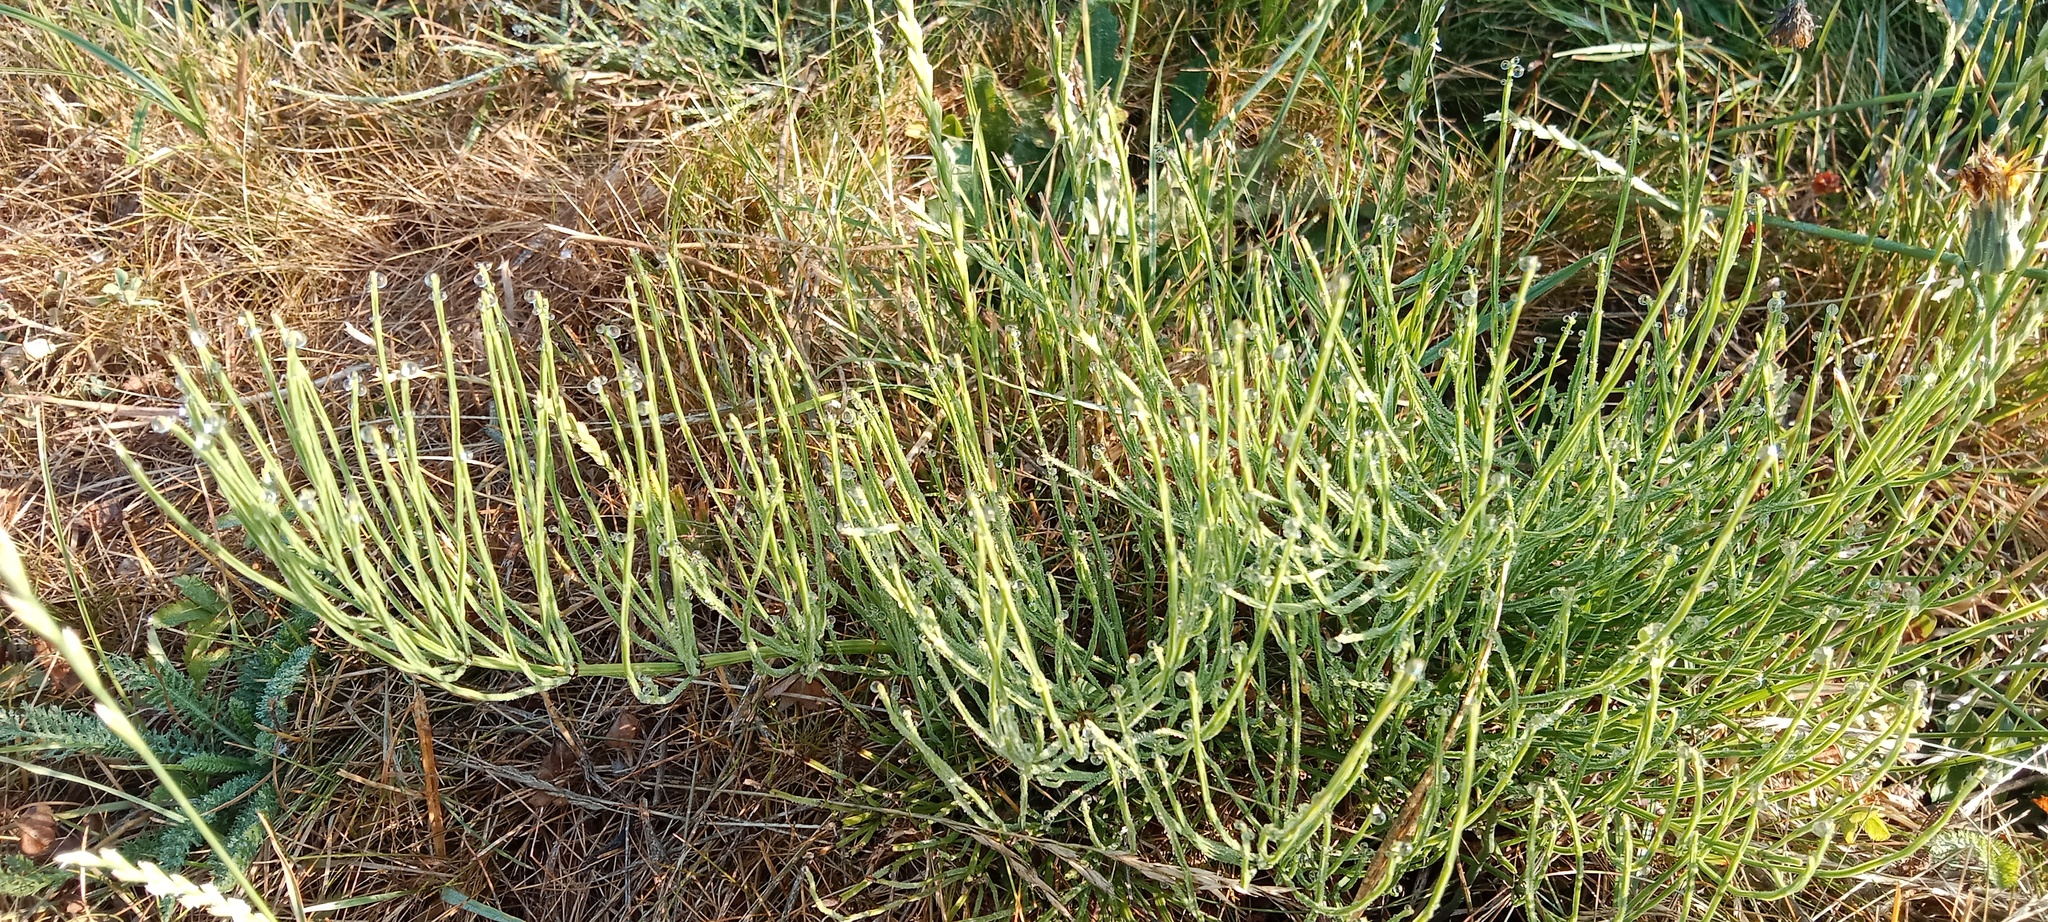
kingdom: Plantae
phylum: Tracheophyta
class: Polypodiopsida
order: Equisetales
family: Equisetaceae
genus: Equisetum
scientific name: Equisetum arvense
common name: Field horsetail
